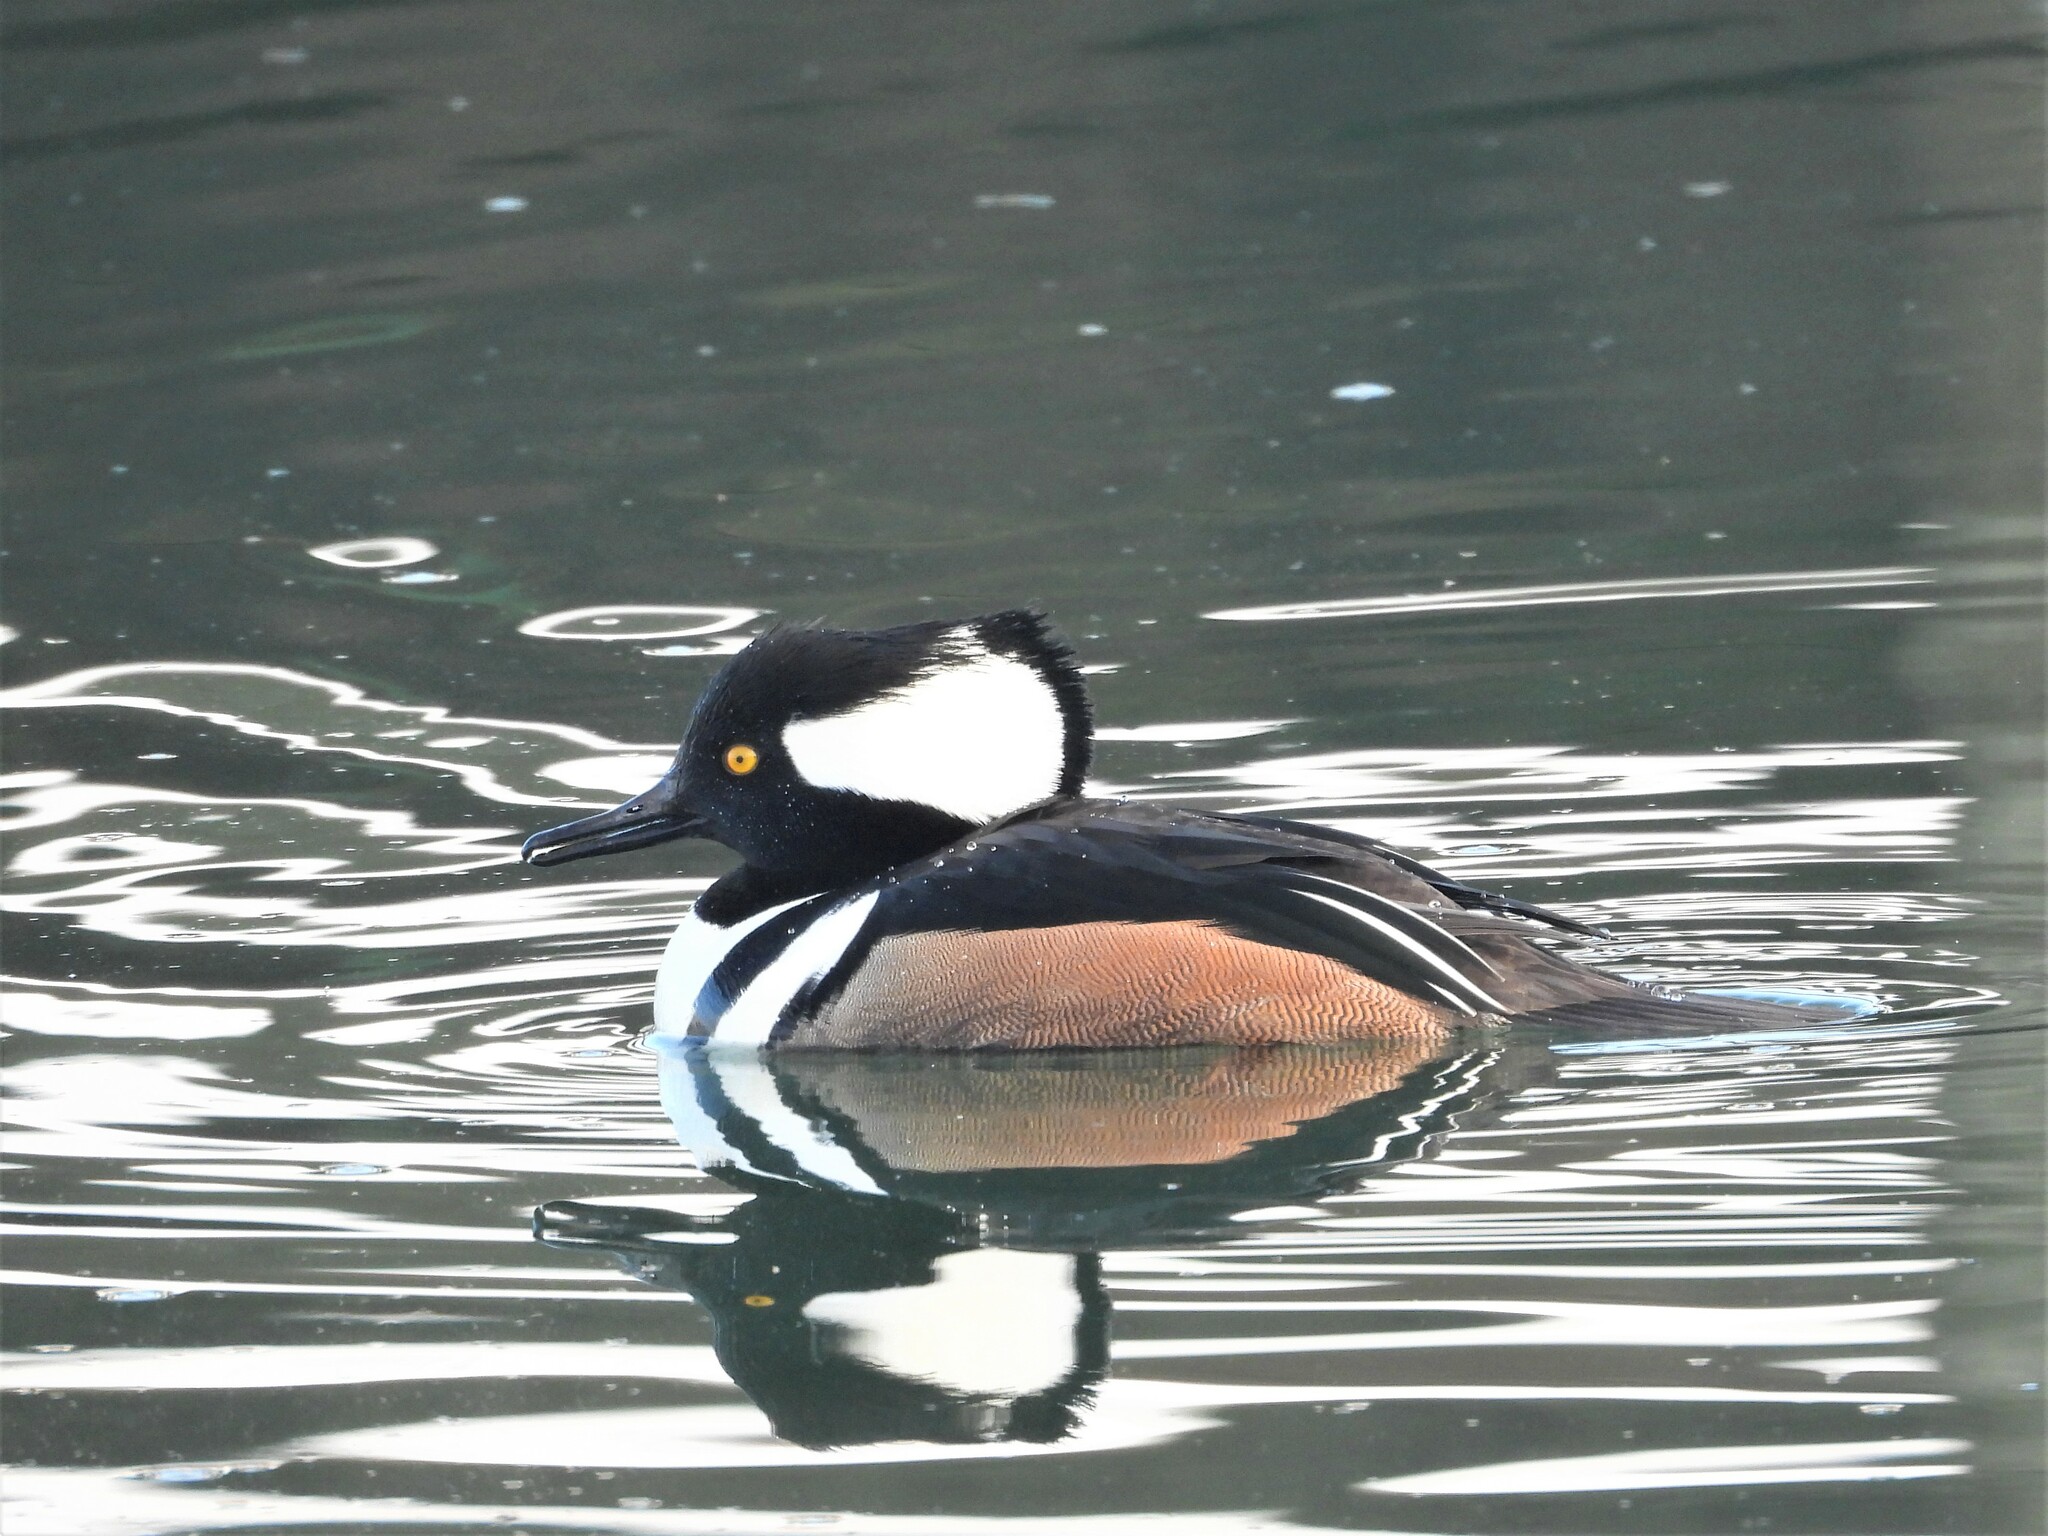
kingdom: Animalia
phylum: Chordata
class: Aves
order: Anseriformes
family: Anatidae
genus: Lophodytes
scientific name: Lophodytes cucullatus
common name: Hooded merganser
